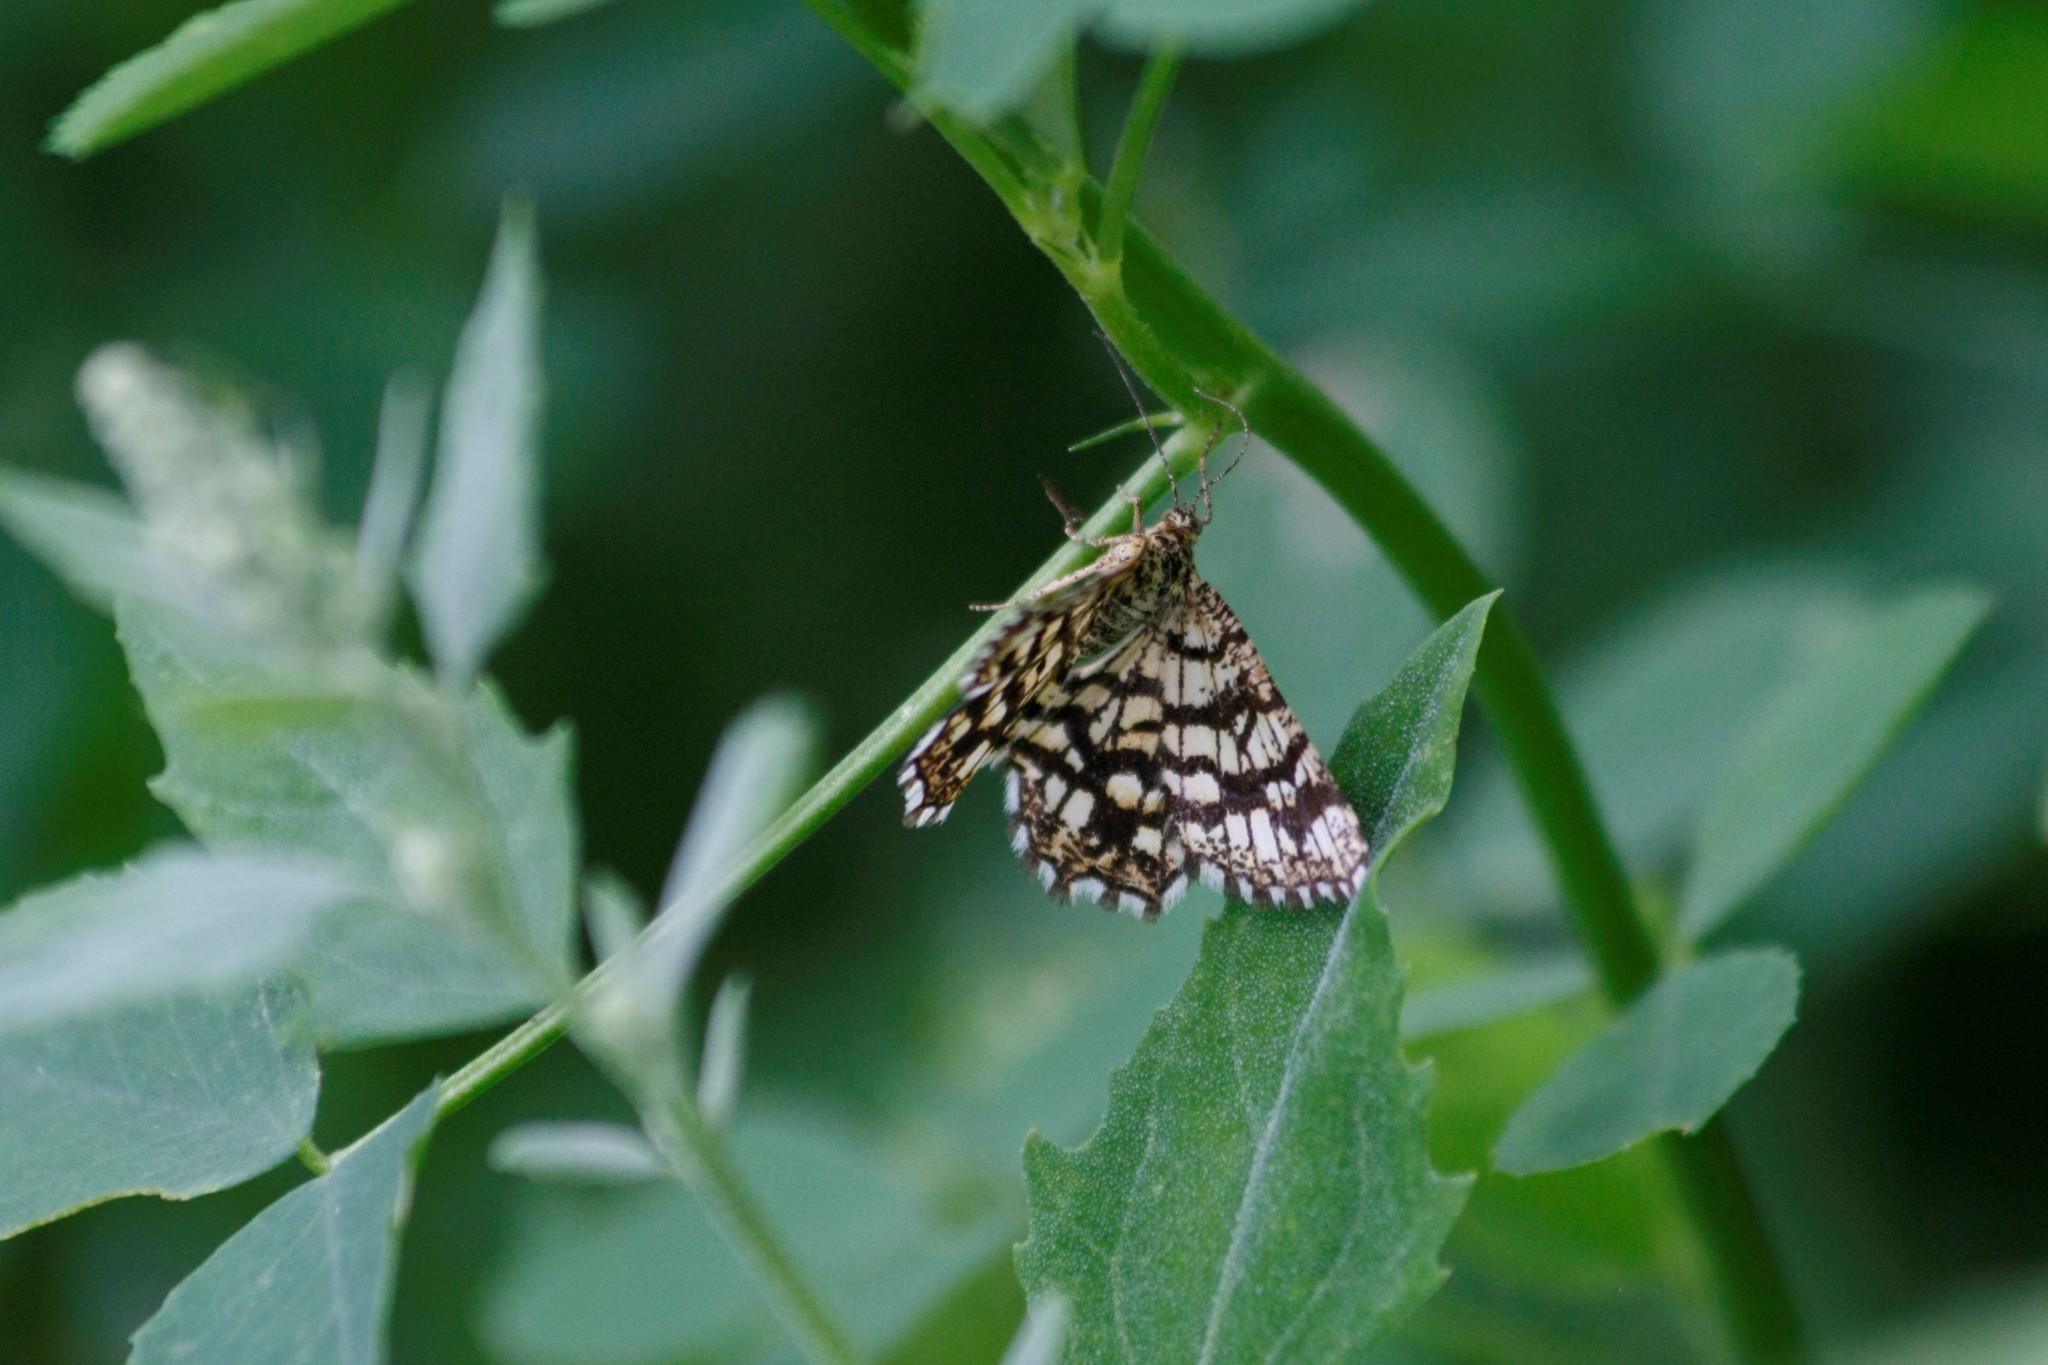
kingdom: Animalia
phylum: Arthropoda
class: Insecta
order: Lepidoptera
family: Geometridae
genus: Chiasmia
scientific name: Chiasmia clathrata
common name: Latticed heath
